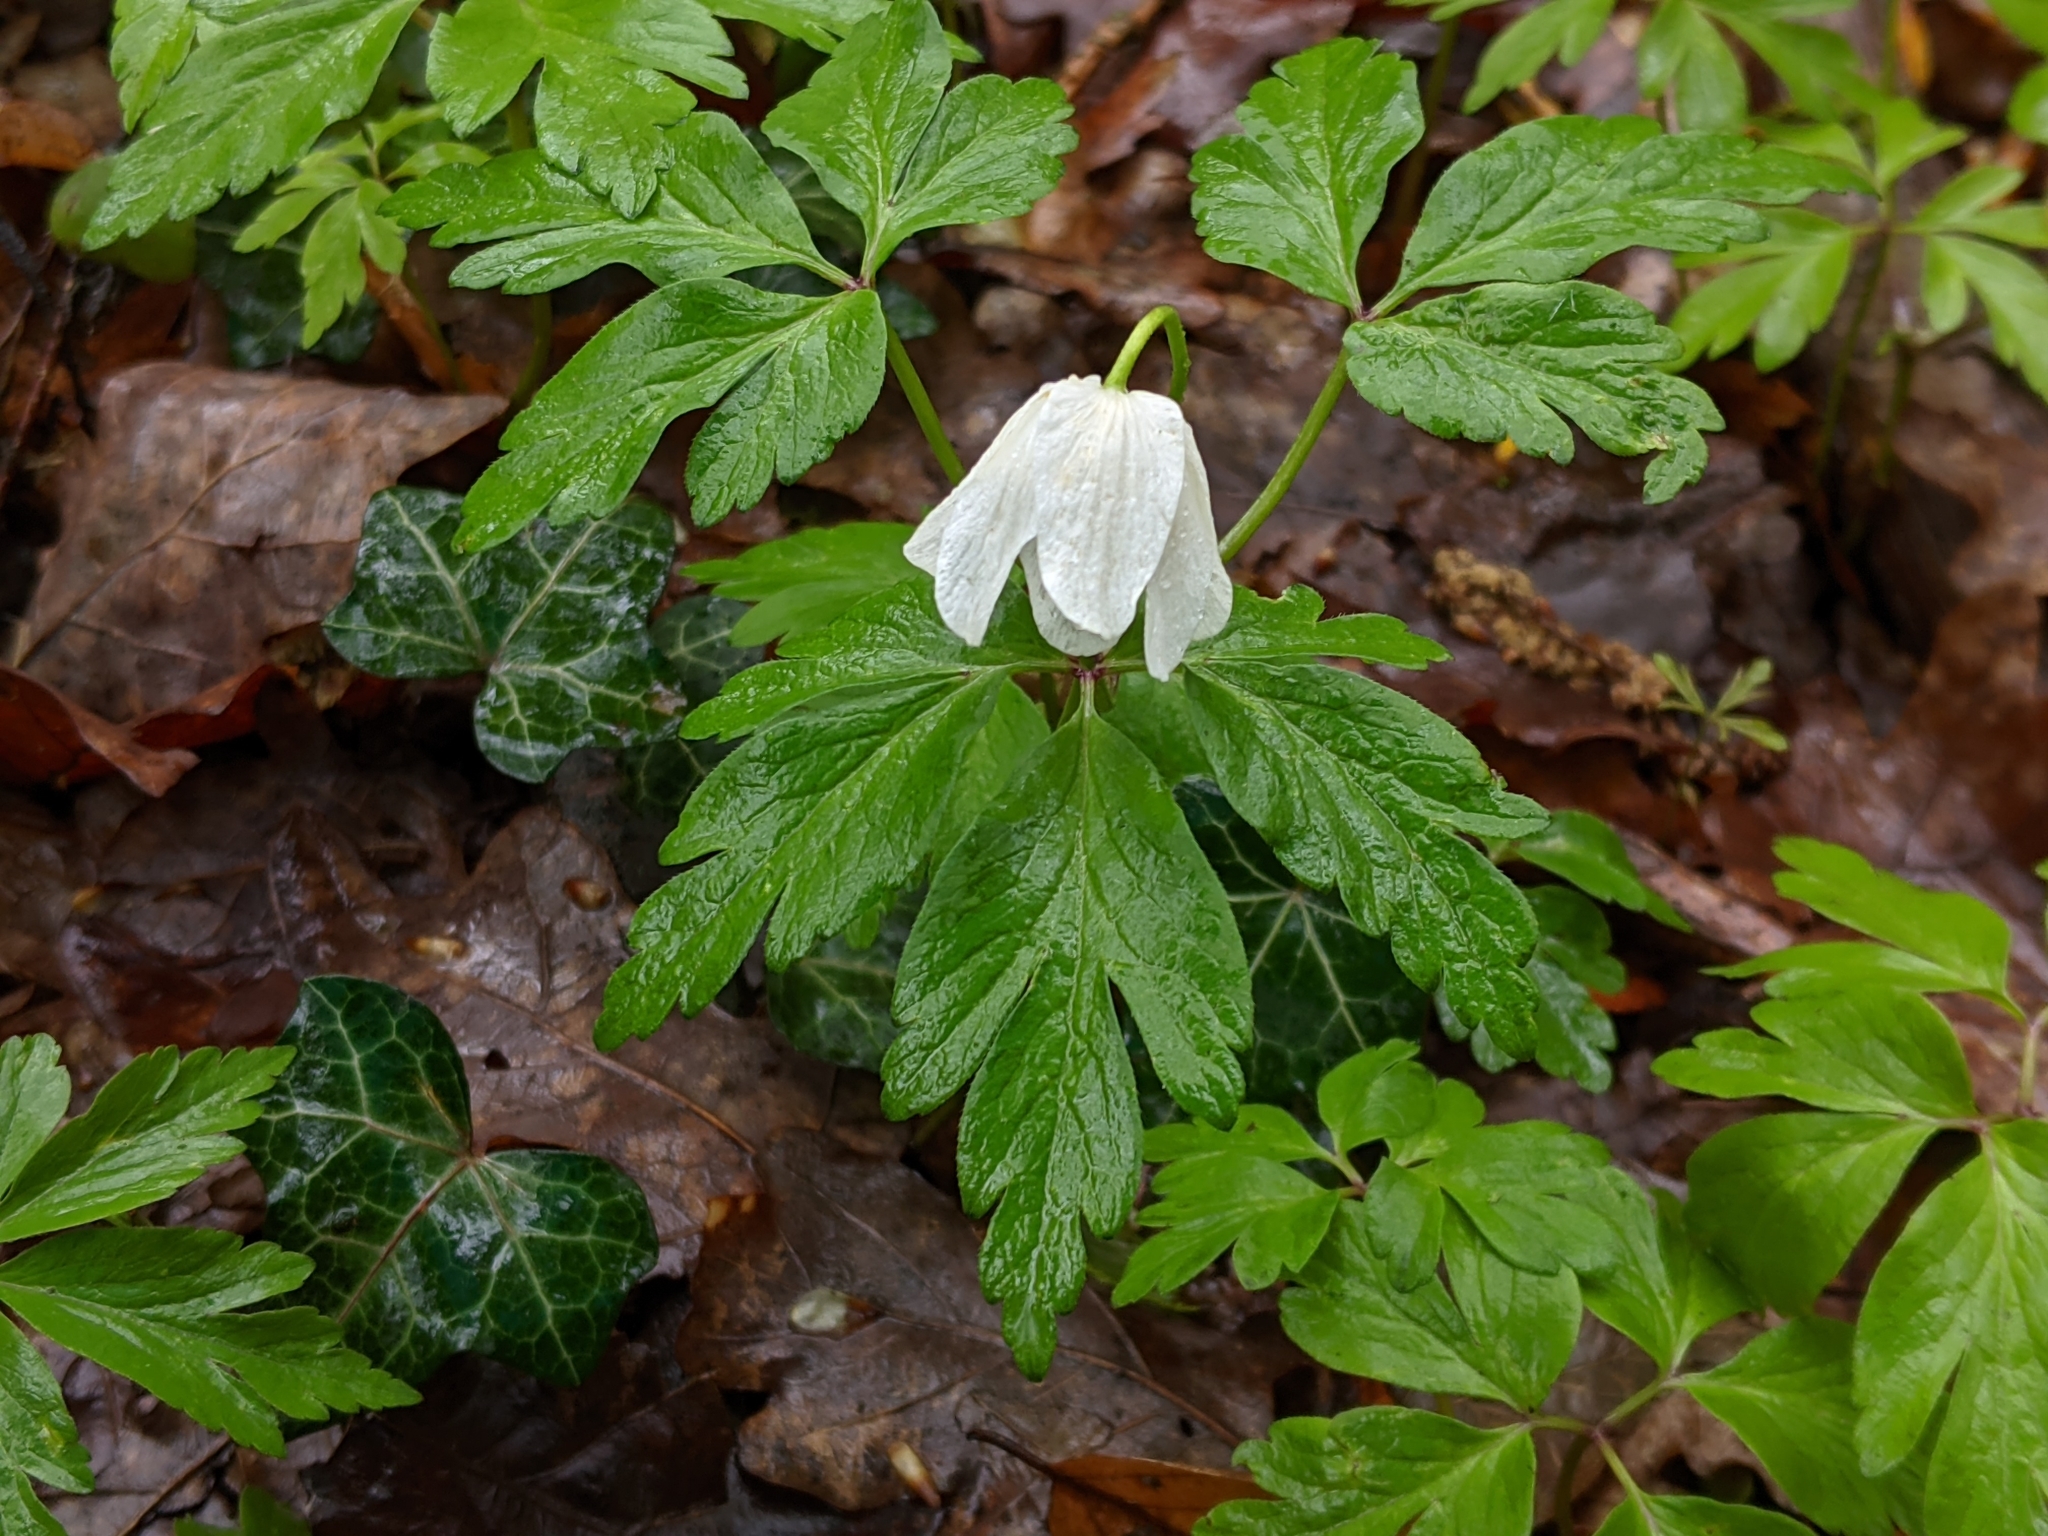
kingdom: Plantae
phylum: Tracheophyta
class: Magnoliopsida
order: Ranunculales
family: Ranunculaceae
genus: Anemone
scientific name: Anemone nemorosa
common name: Wood anemone
